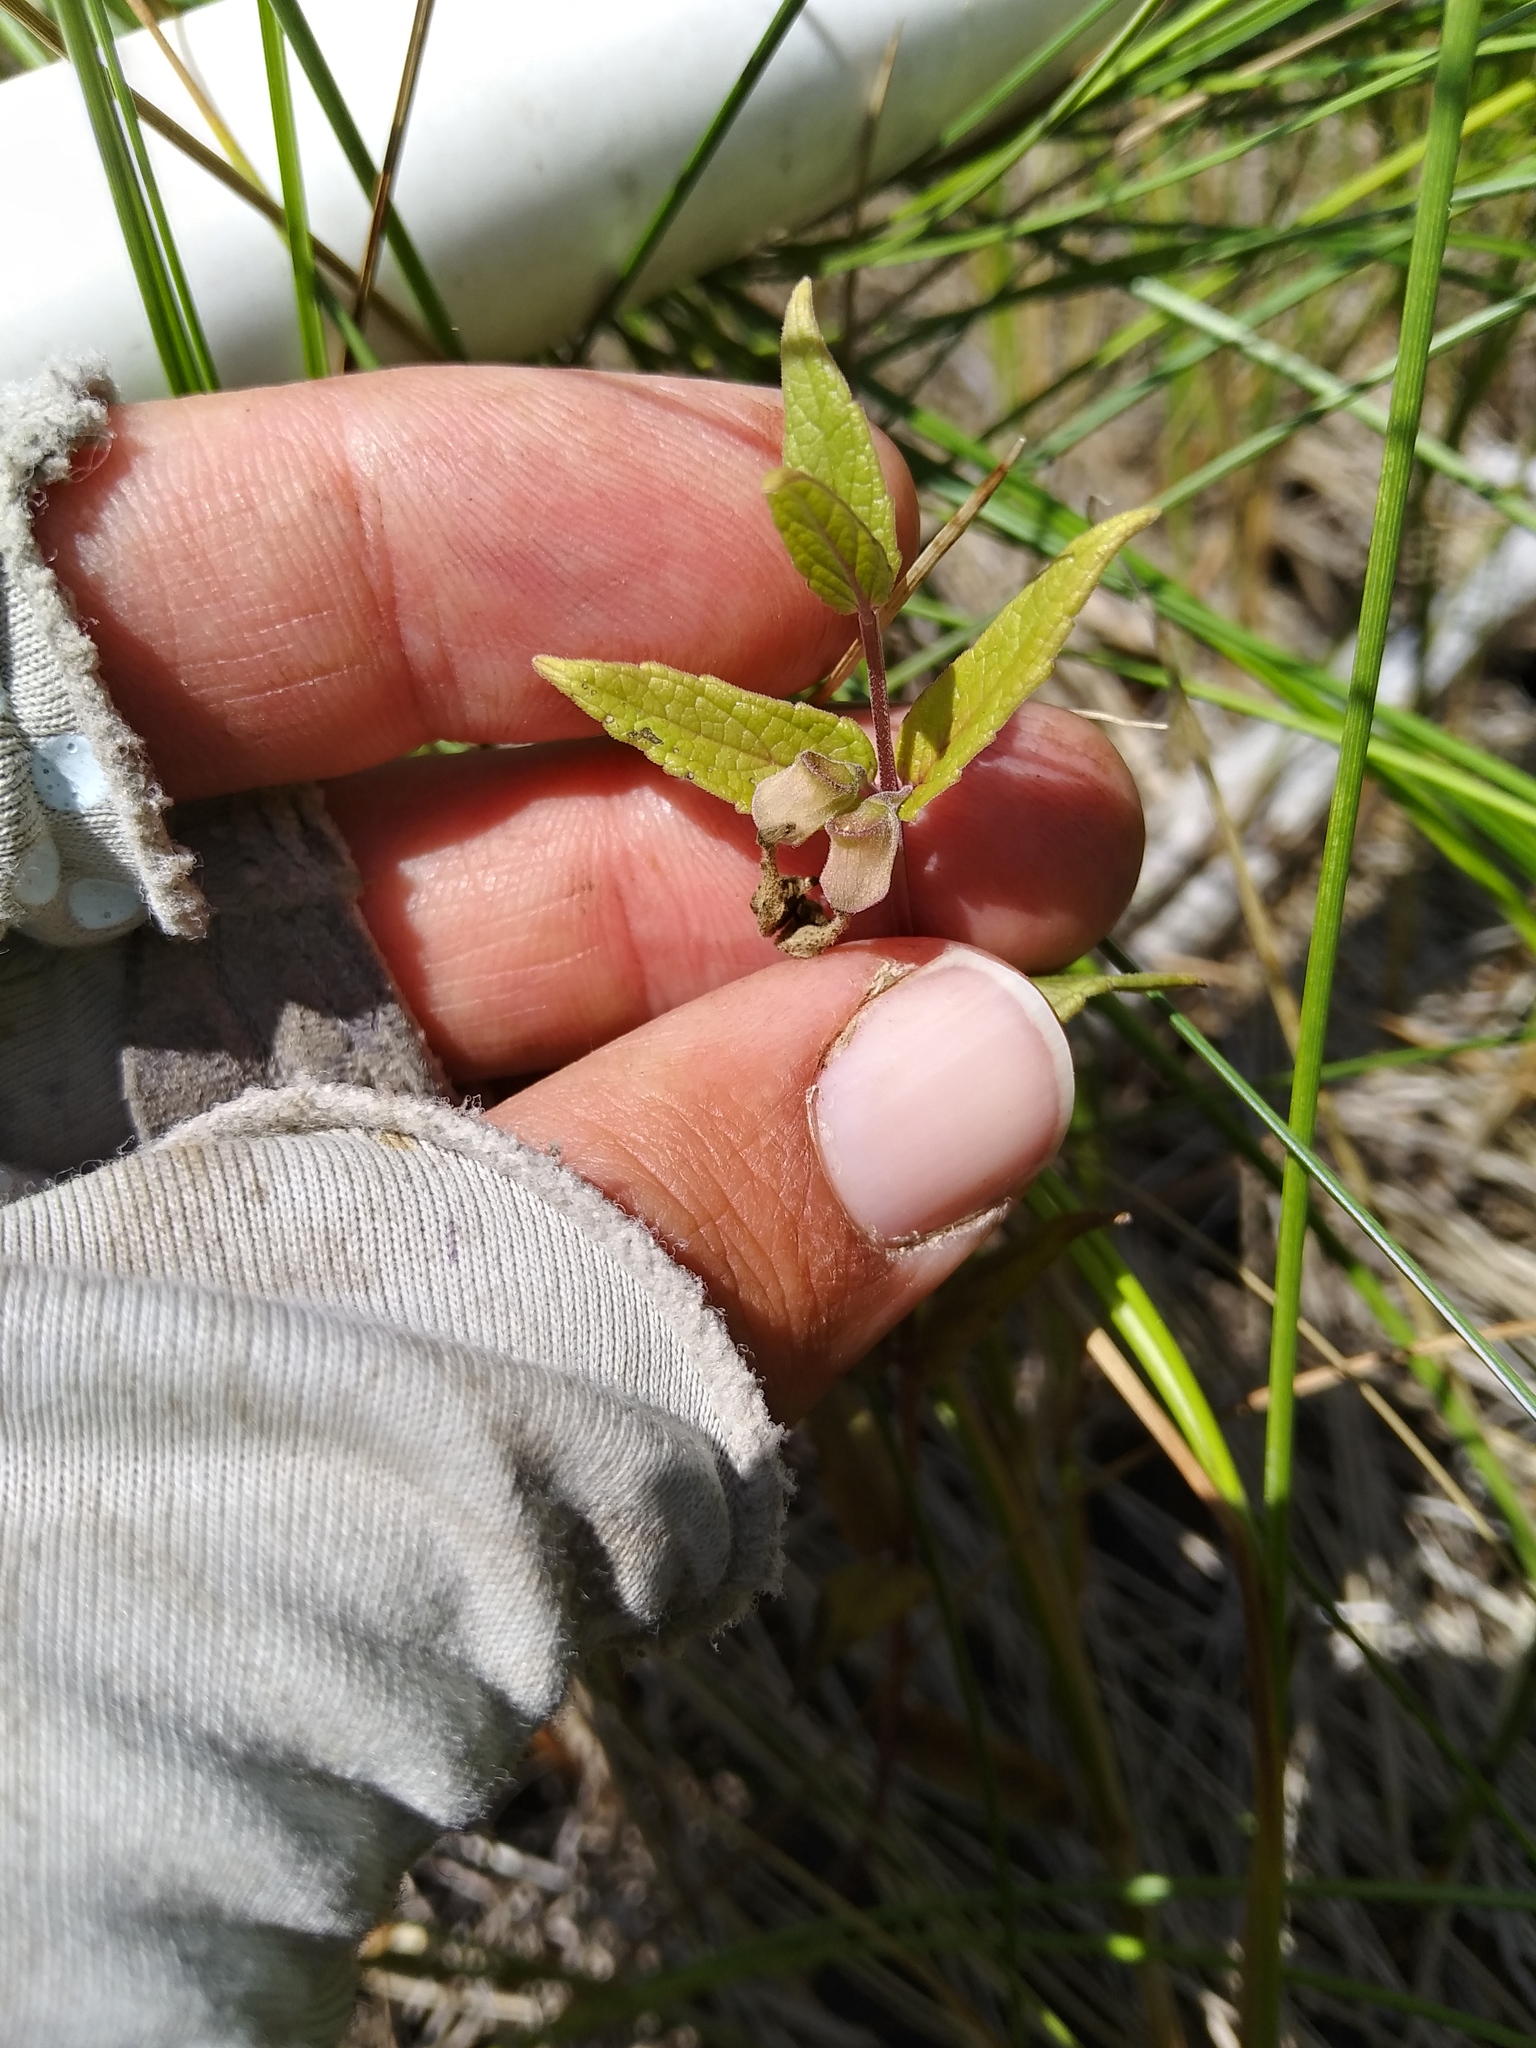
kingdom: Plantae
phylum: Tracheophyta
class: Magnoliopsida
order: Lamiales
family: Lamiaceae
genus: Scutellaria
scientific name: Scutellaria galericulata
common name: Skullcap
